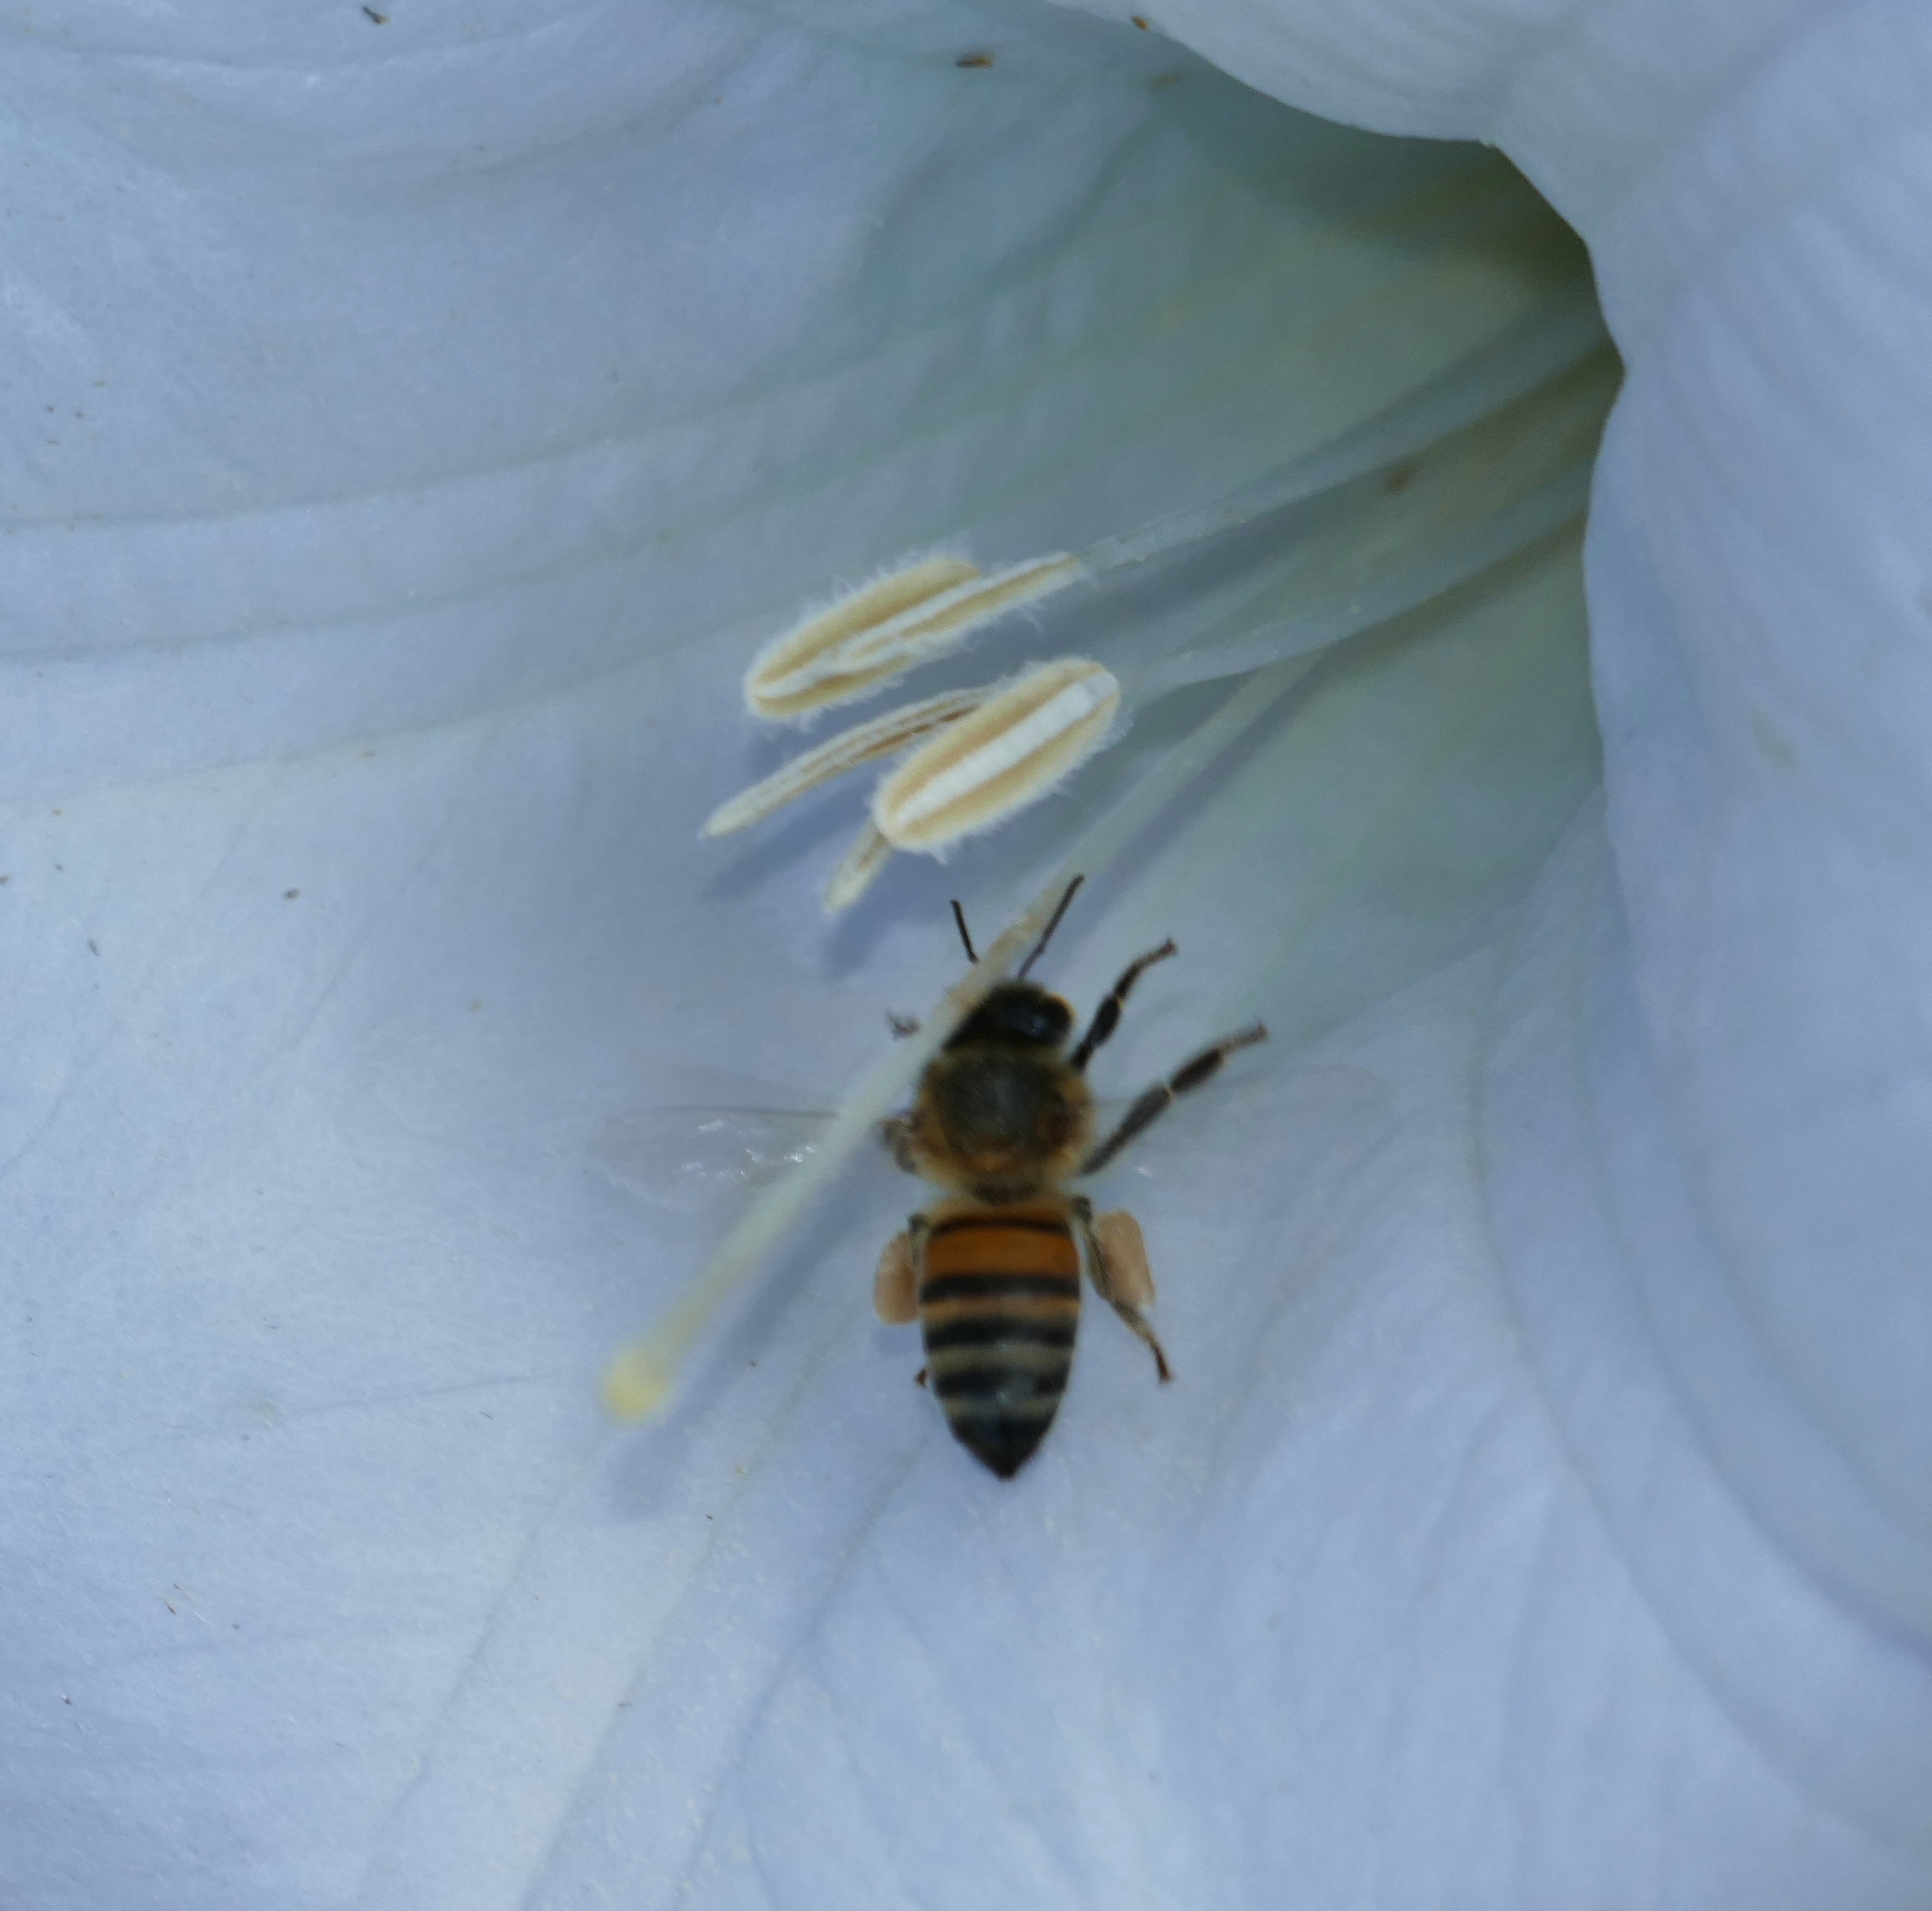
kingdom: Animalia
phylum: Arthropoda
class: Insecta
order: Hymenoptera
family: Apidae
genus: Apis
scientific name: Apis mellifera
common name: Honey bee
